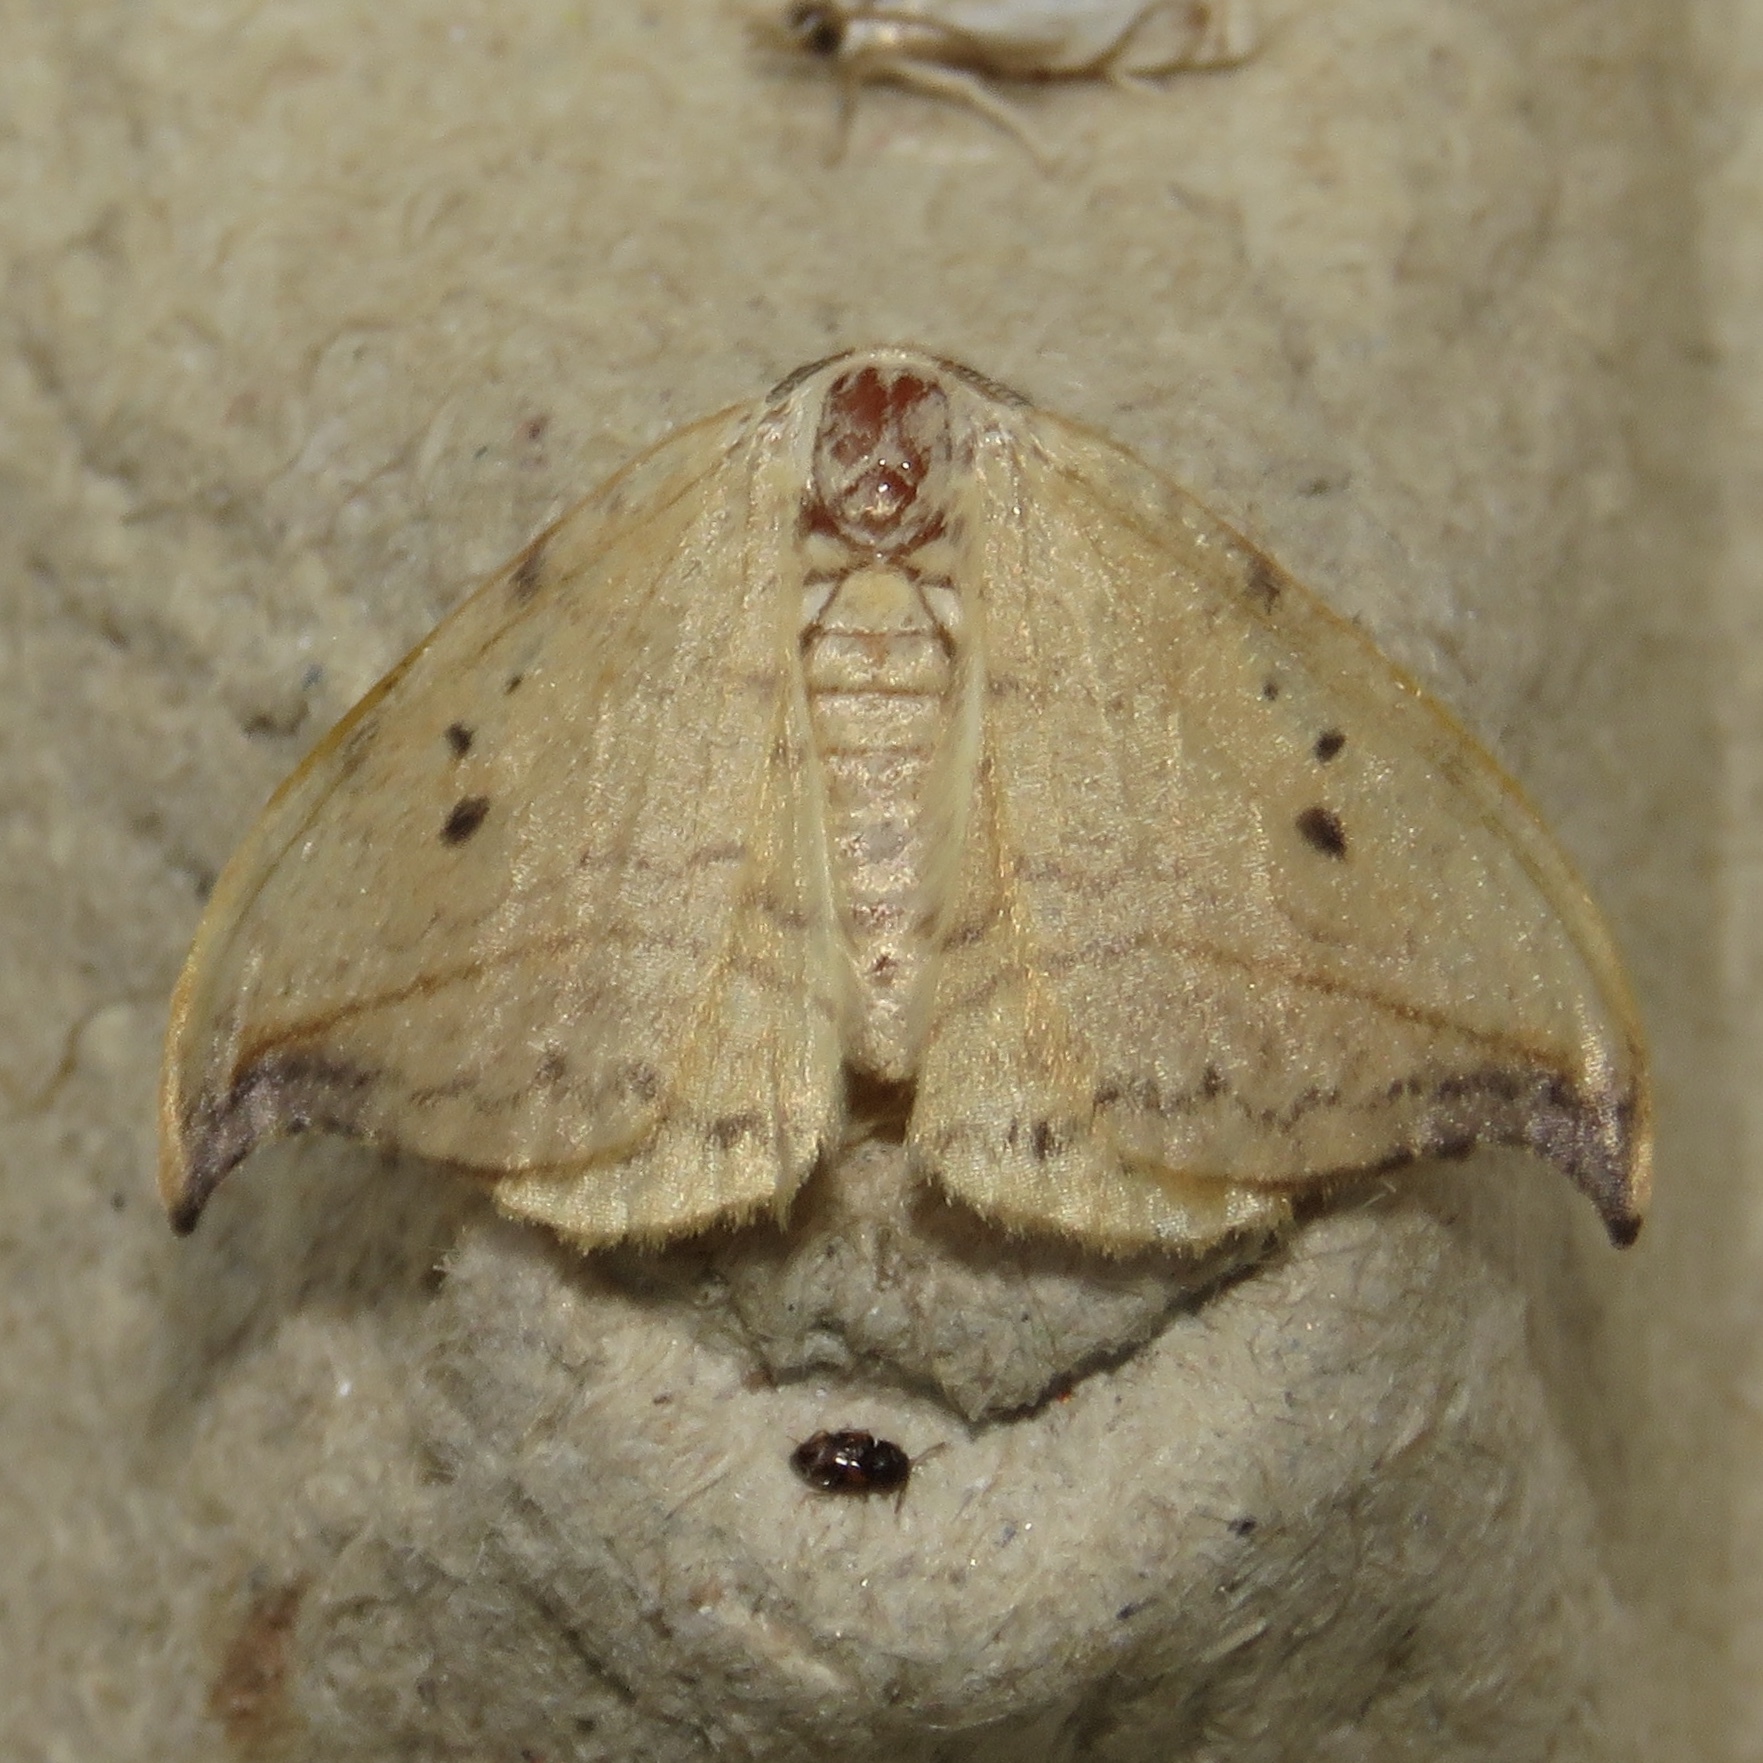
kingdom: Animalia
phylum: Arthropoda
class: Insecta
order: Lepidoptera
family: Drepanidae
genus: Drepana
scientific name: Drepana arcuata
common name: Arched hooktip moth
